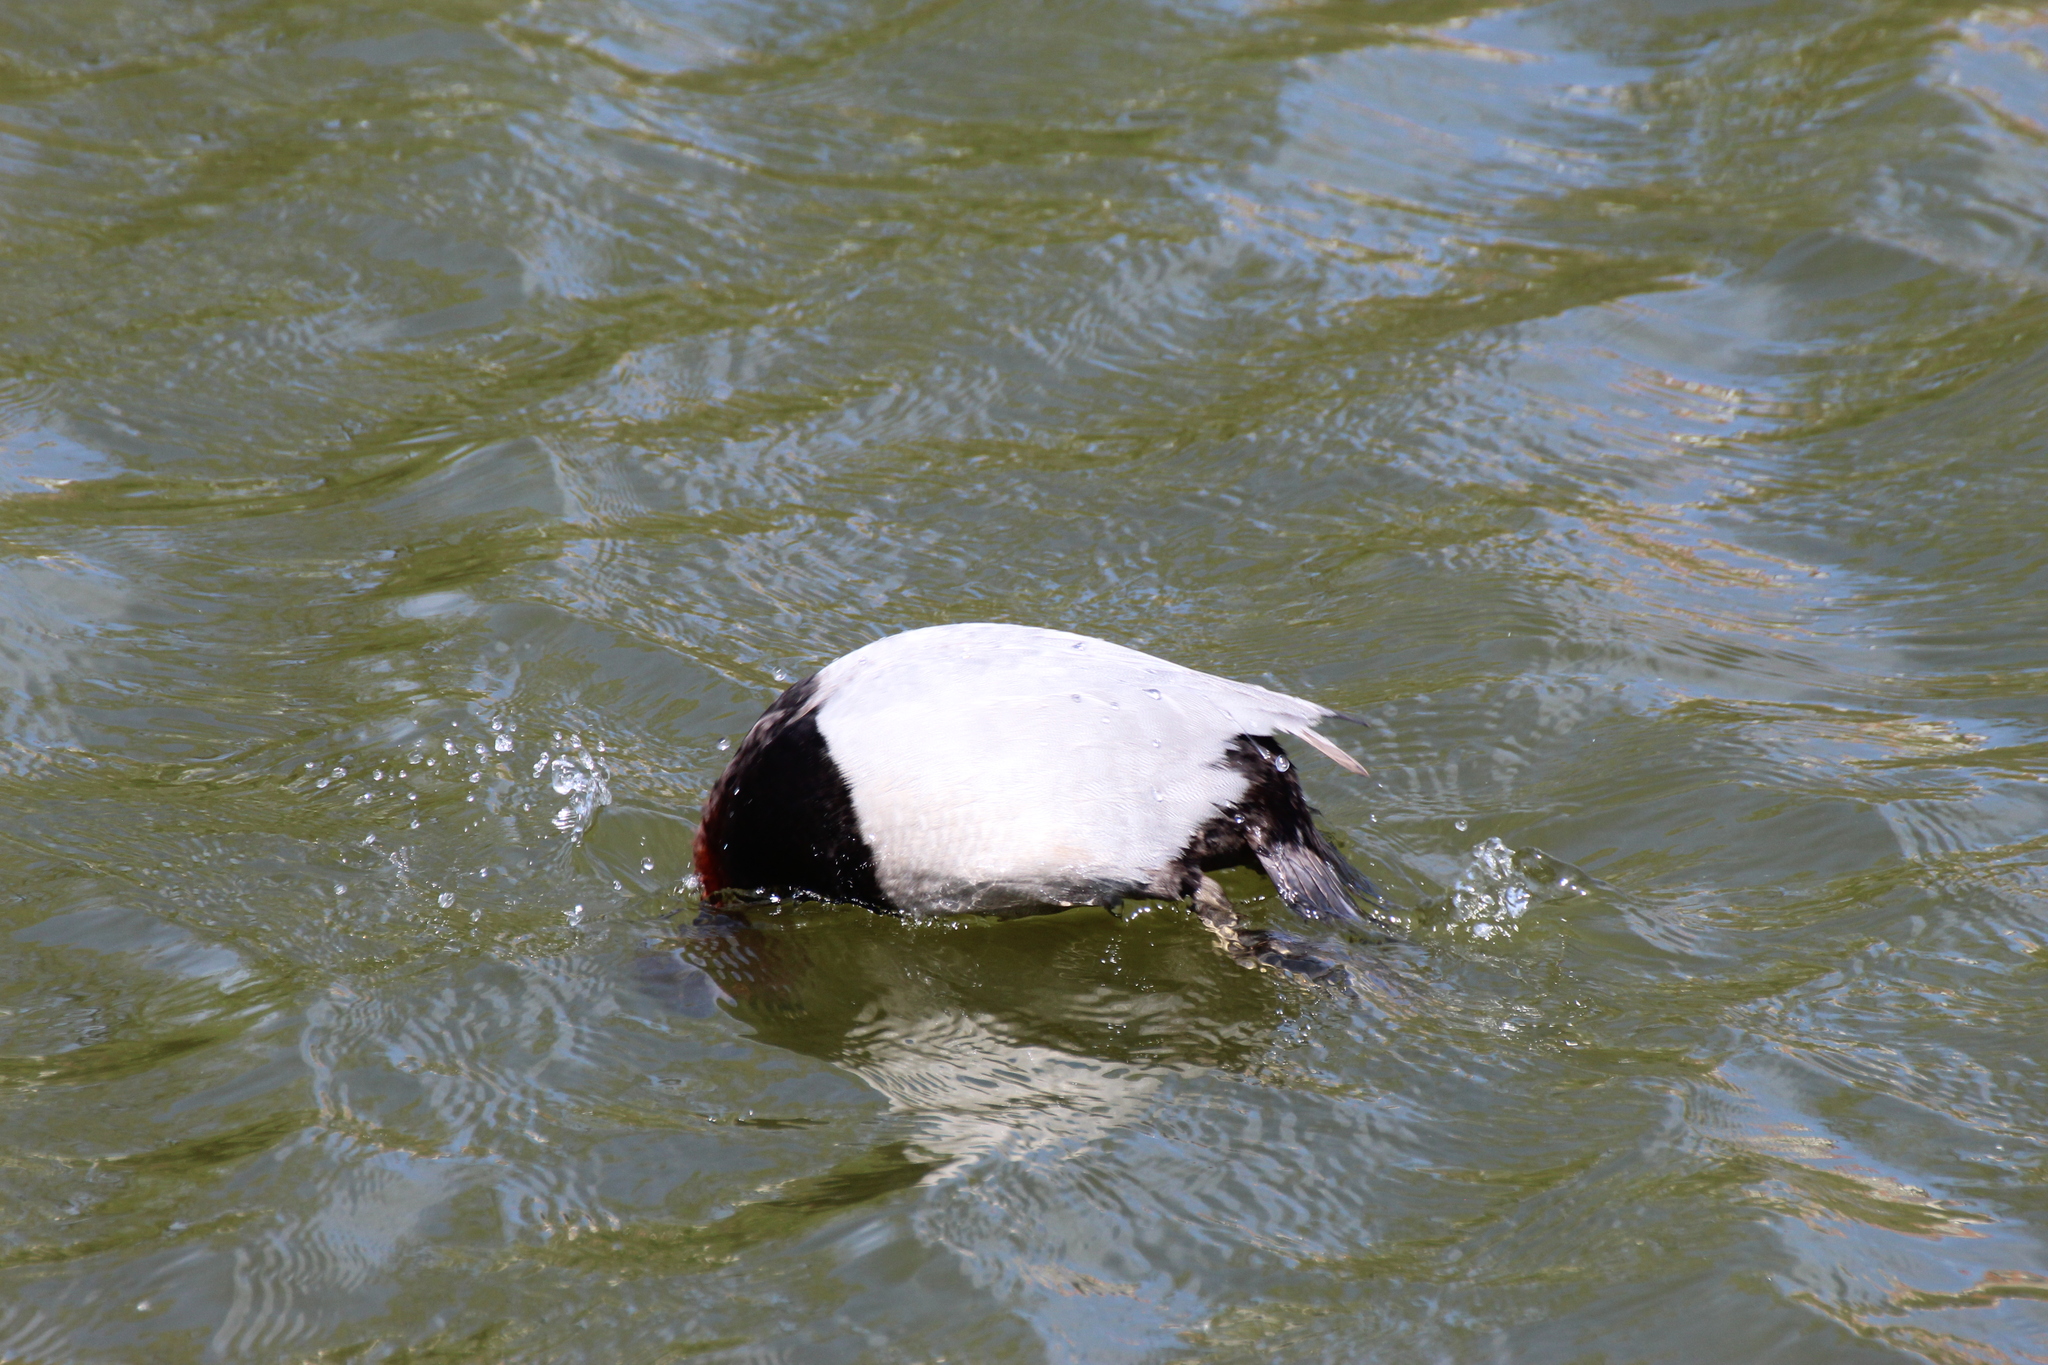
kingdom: Animalia
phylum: Chordata
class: Aves
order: Anseriformes
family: Anatidae
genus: Aythya
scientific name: Aythya ferina
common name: Common pochard
